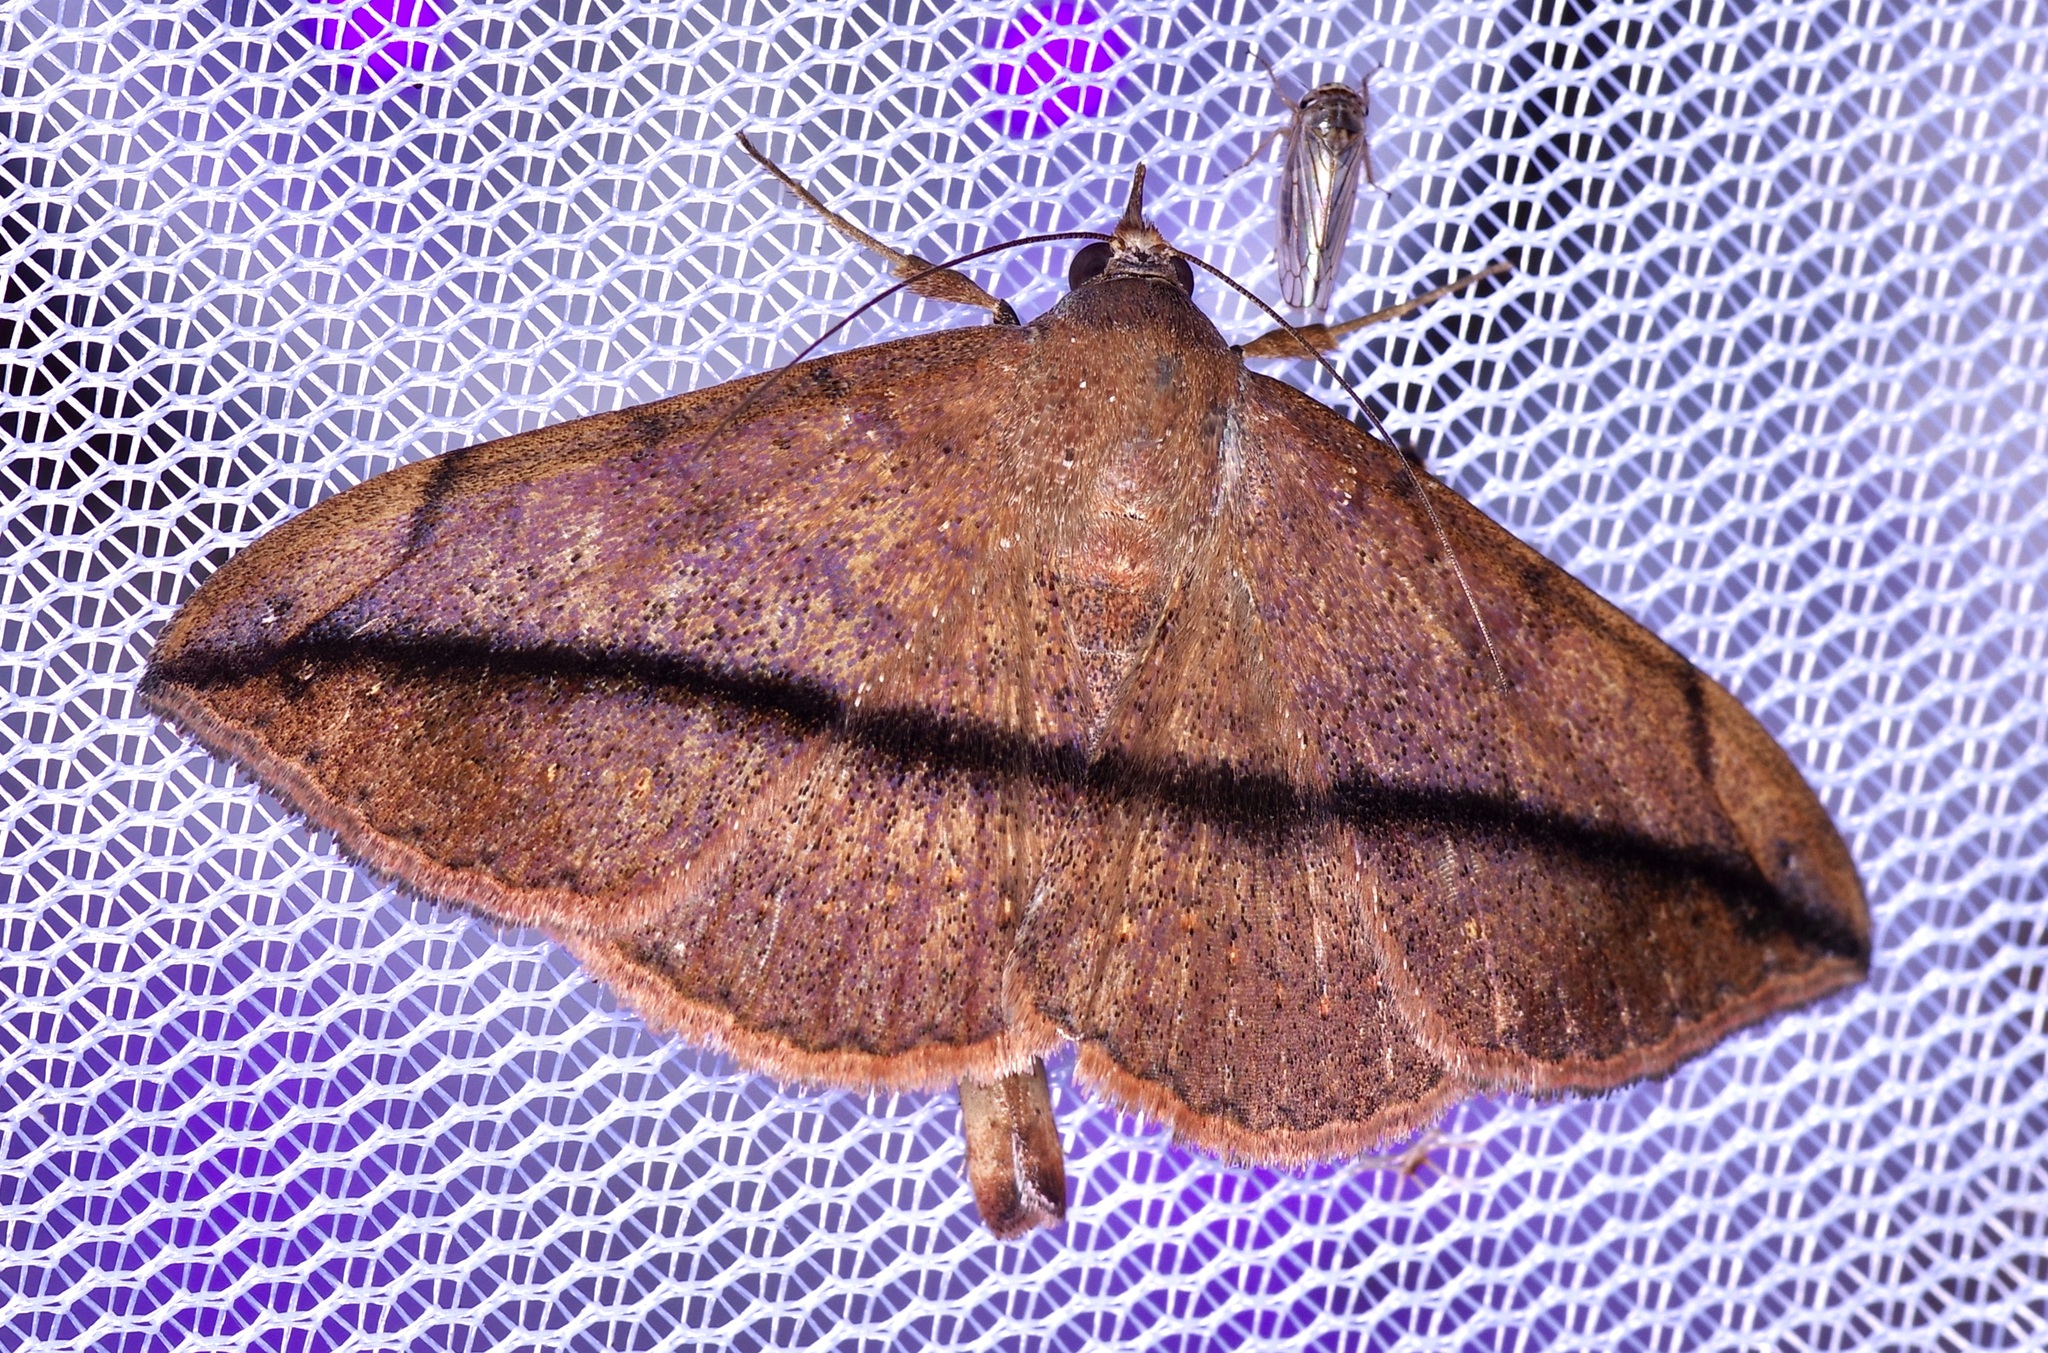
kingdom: Animalia
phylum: Arthropoda
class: Insecta
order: Lepidoptera
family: Erebidae
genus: Anticarsia
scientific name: Anticarsia gemmatalis
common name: Cutworm moth
